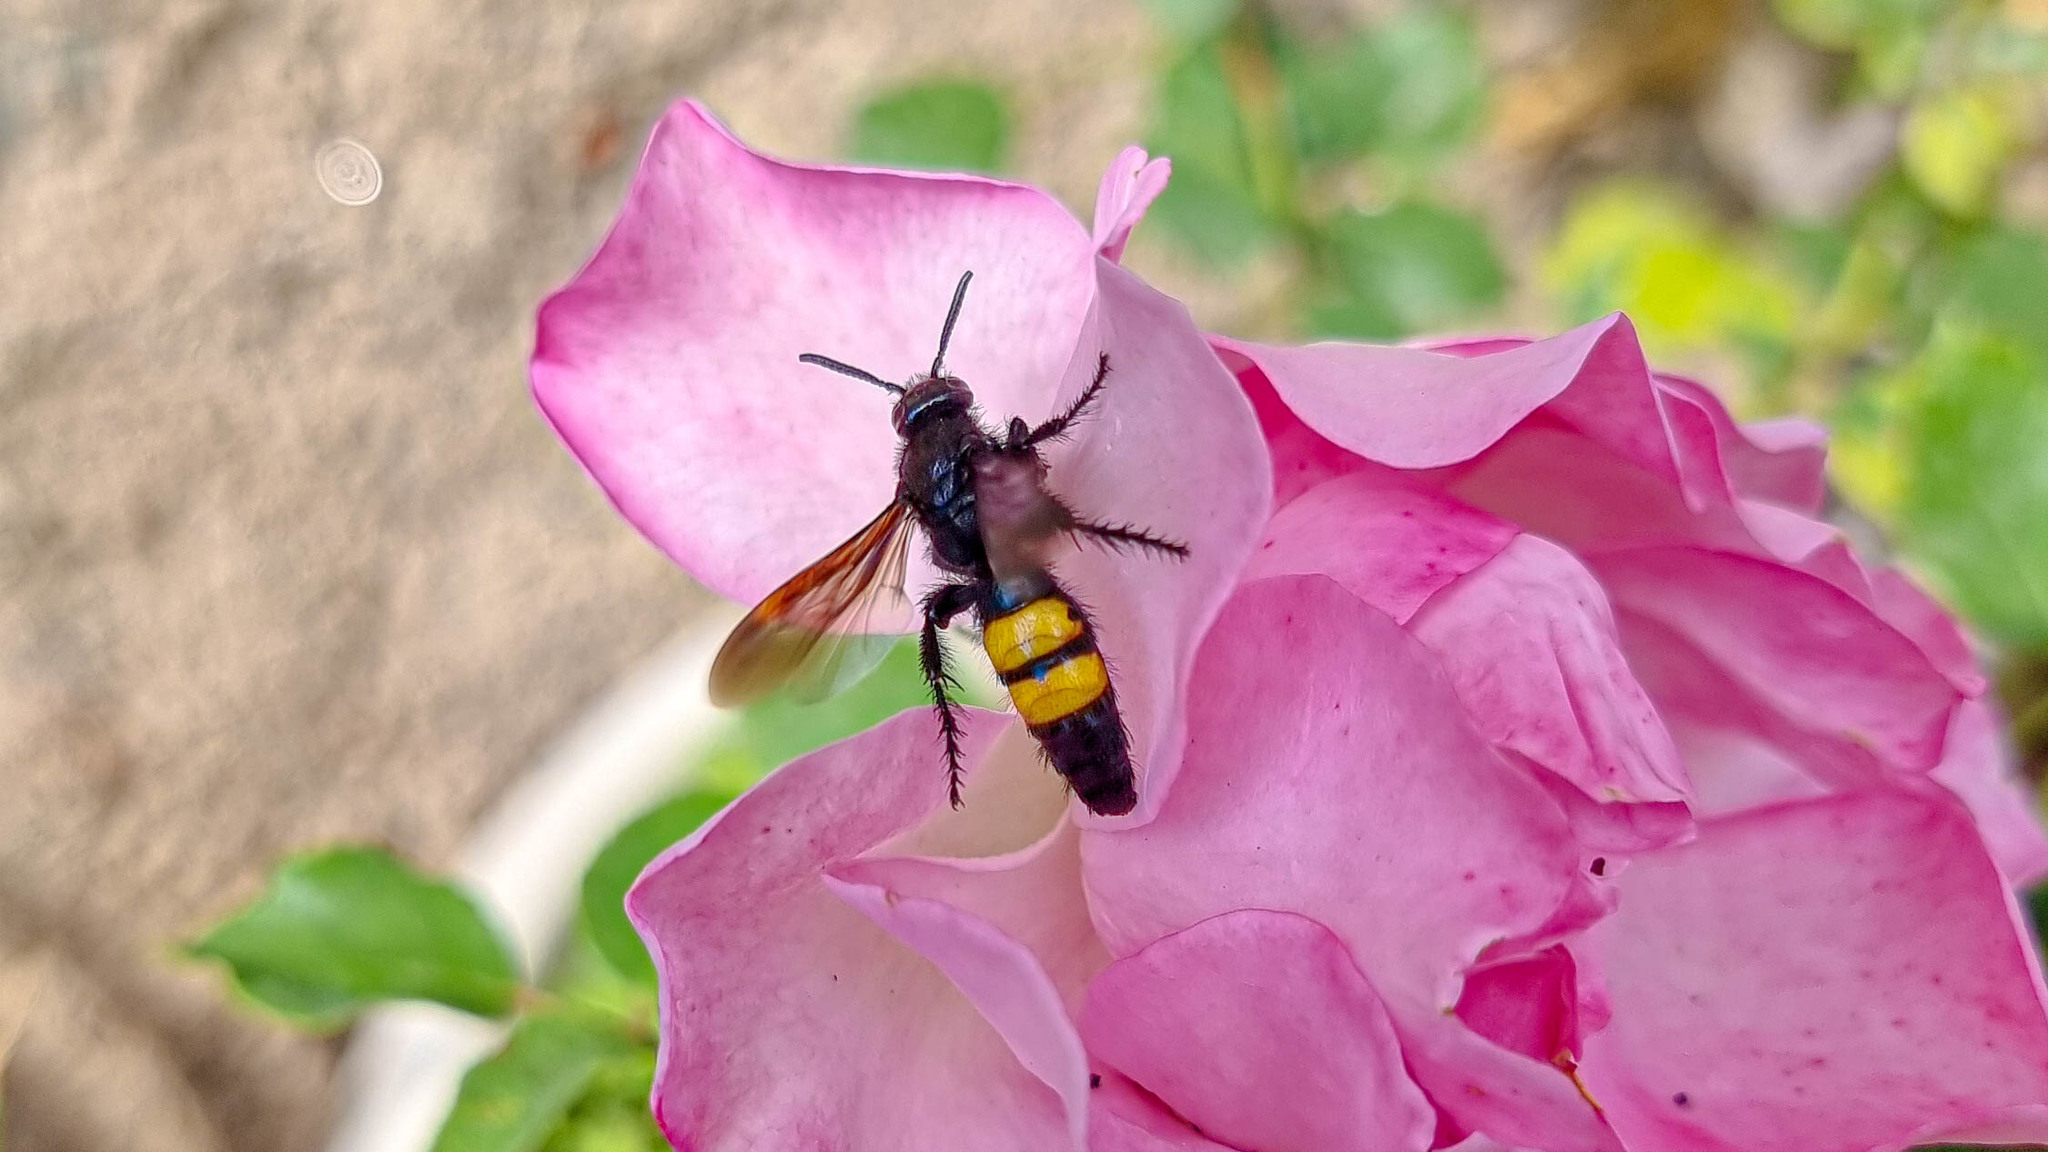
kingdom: Animalia
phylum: Arthropoda
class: Insecta
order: Hymenoptera
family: Scoliidae
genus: Scolia
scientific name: Scolia hirta
